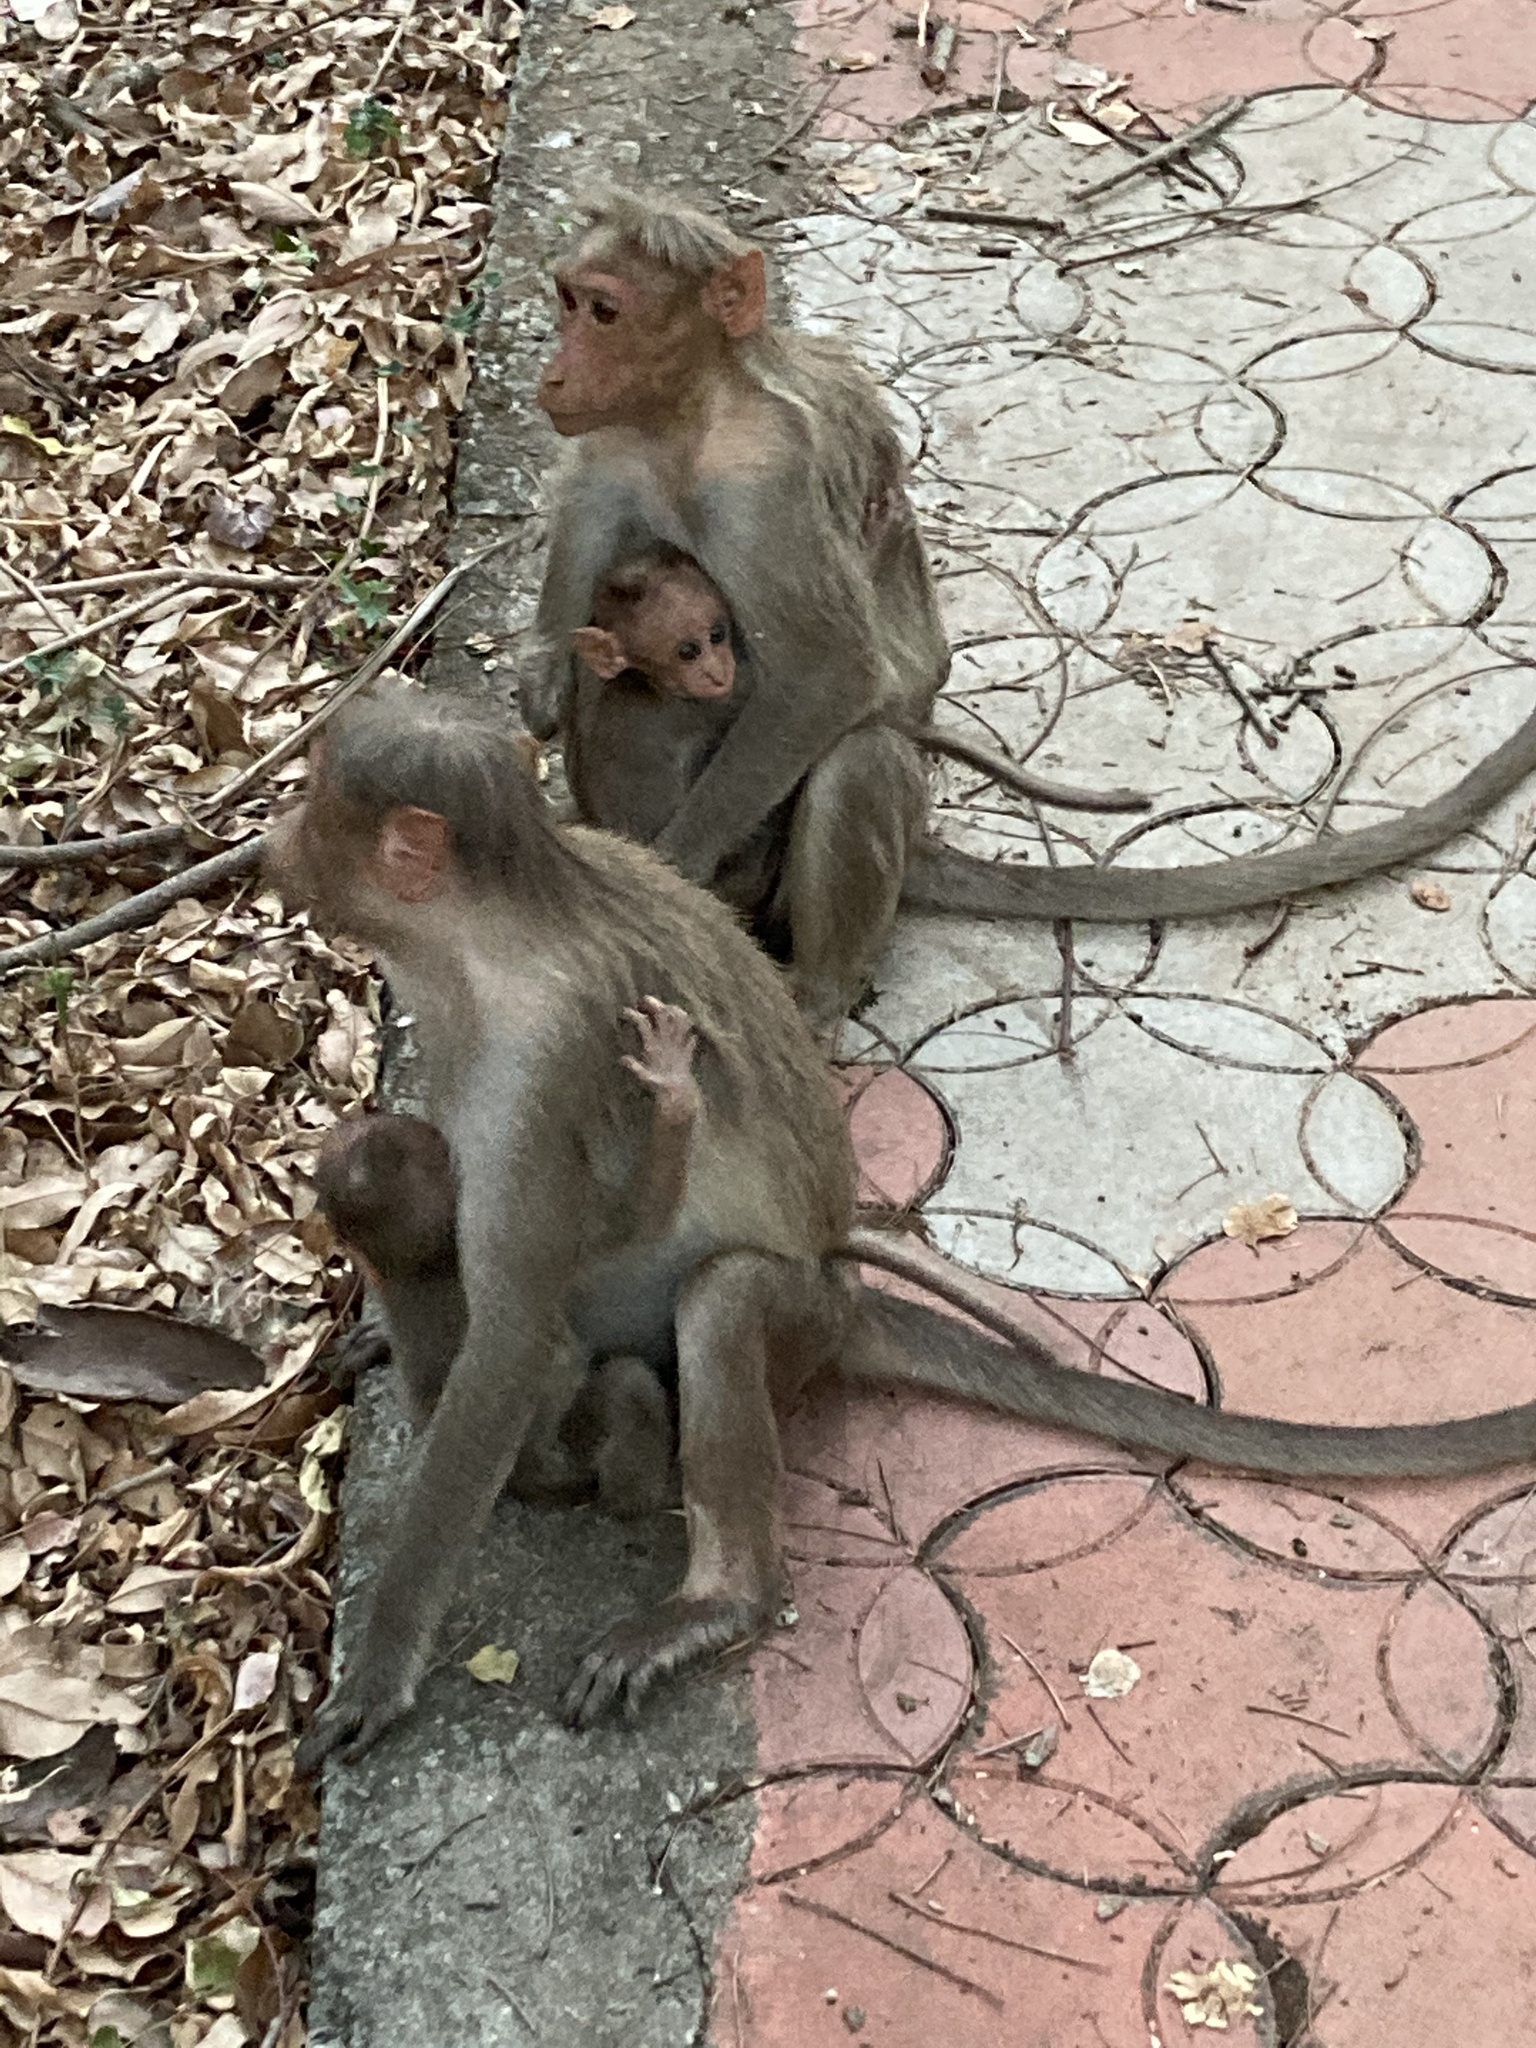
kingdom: Animalia
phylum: Chordata
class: Mammalia
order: Primates
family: Cercopithecidae
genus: Macaca
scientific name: Macaca radiata
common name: Bonnet macaque
